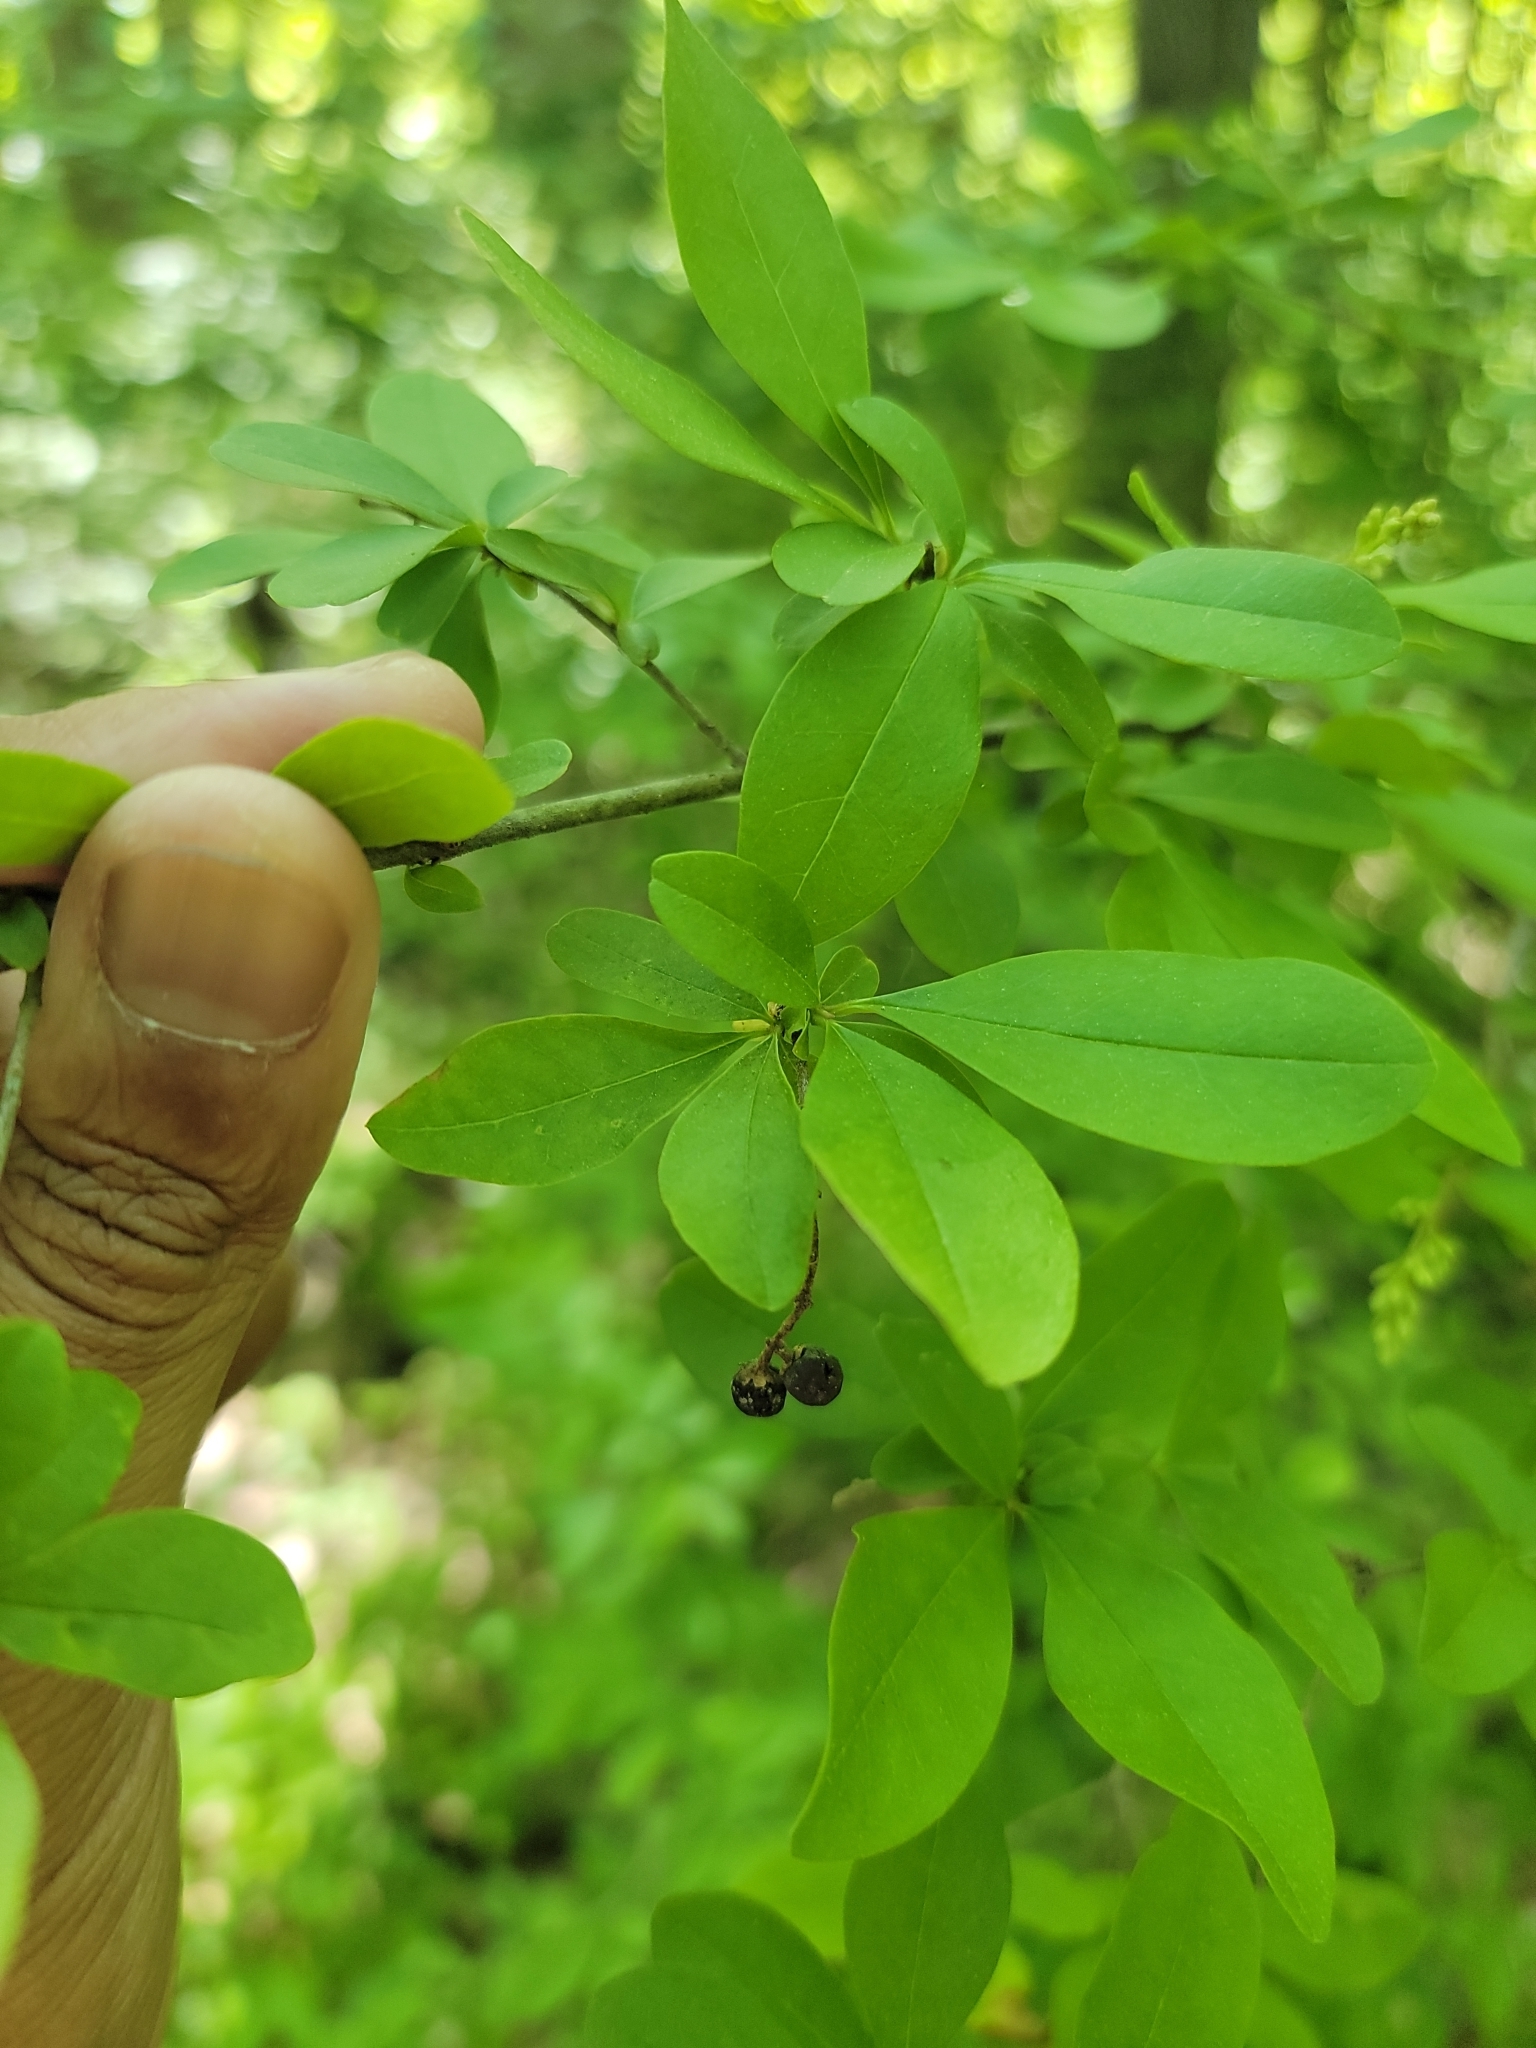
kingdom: Plantae
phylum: Tracheophyta
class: Magnoliopsida
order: Lamiales
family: Oleaceae
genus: Ligustrum
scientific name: Ligustrum obtusifolium
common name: Border privet
